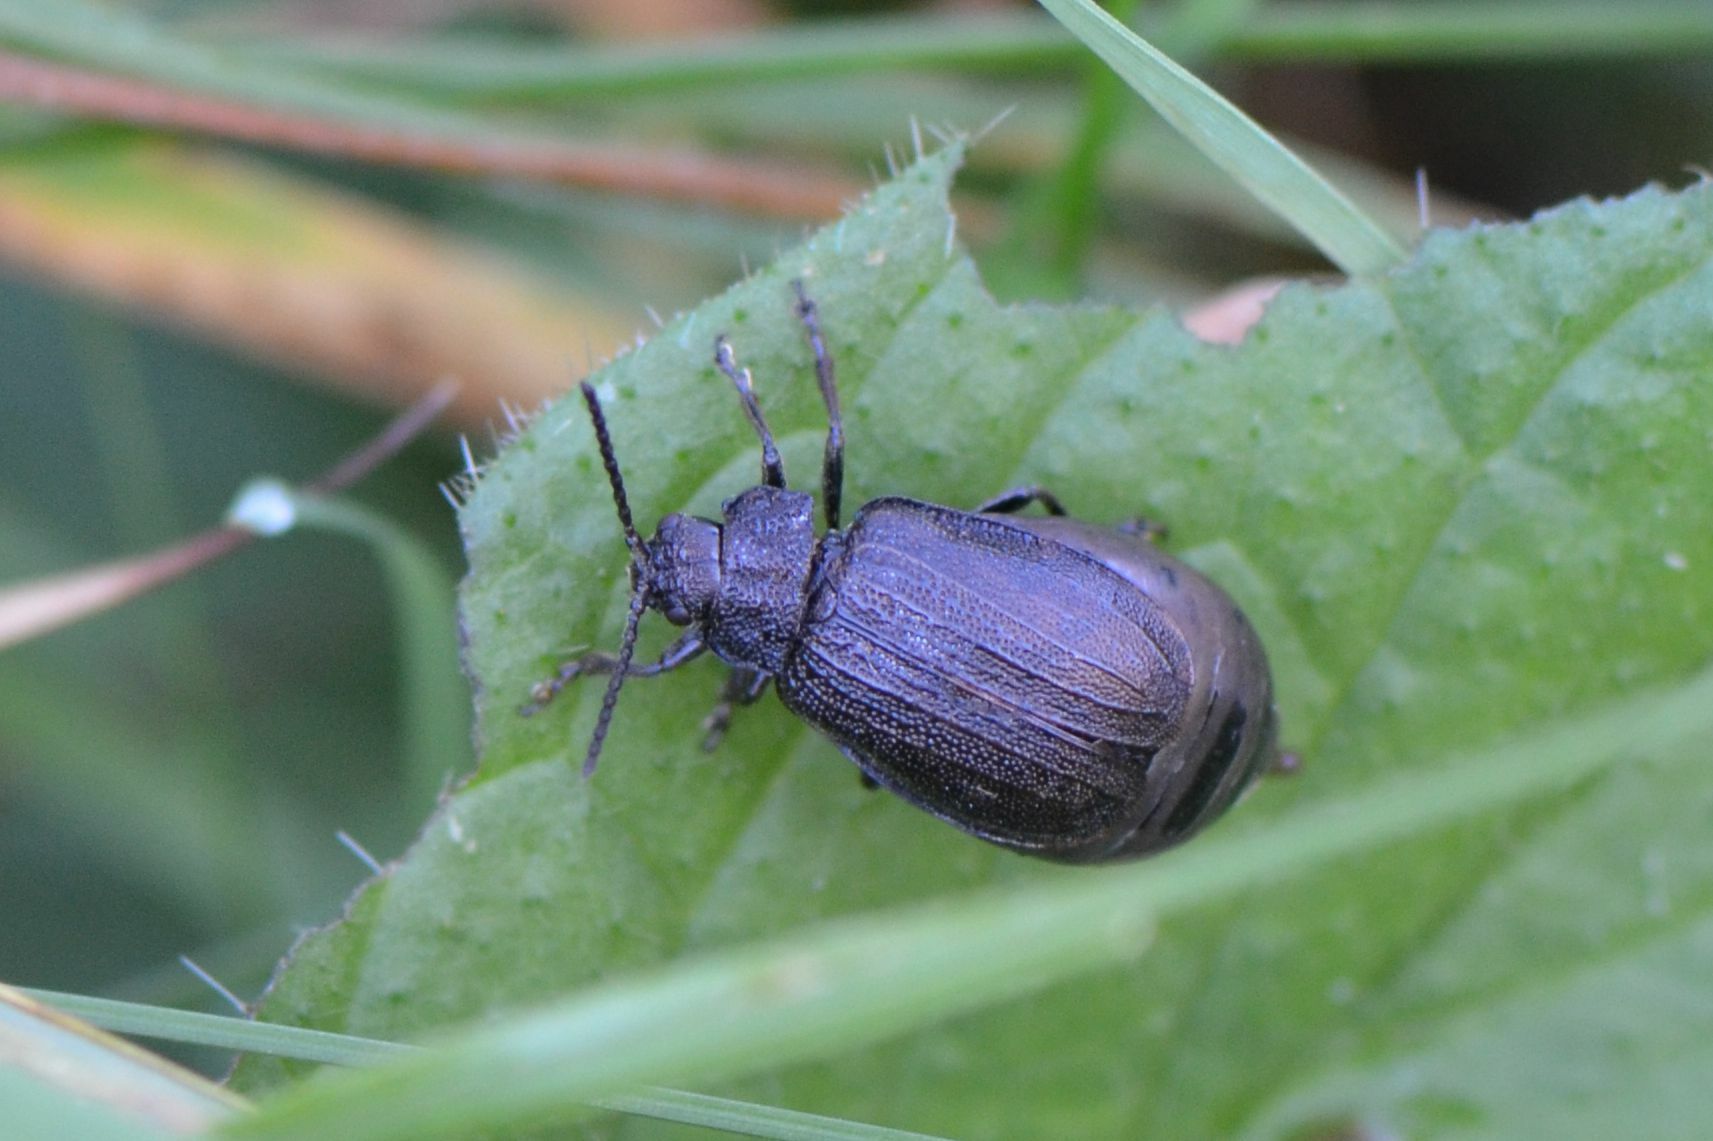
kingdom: Animalia
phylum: Arthropoda
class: Insecta
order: Coleoptera
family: Chrysomelidae
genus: Galeruca
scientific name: Galeruca pomonae
